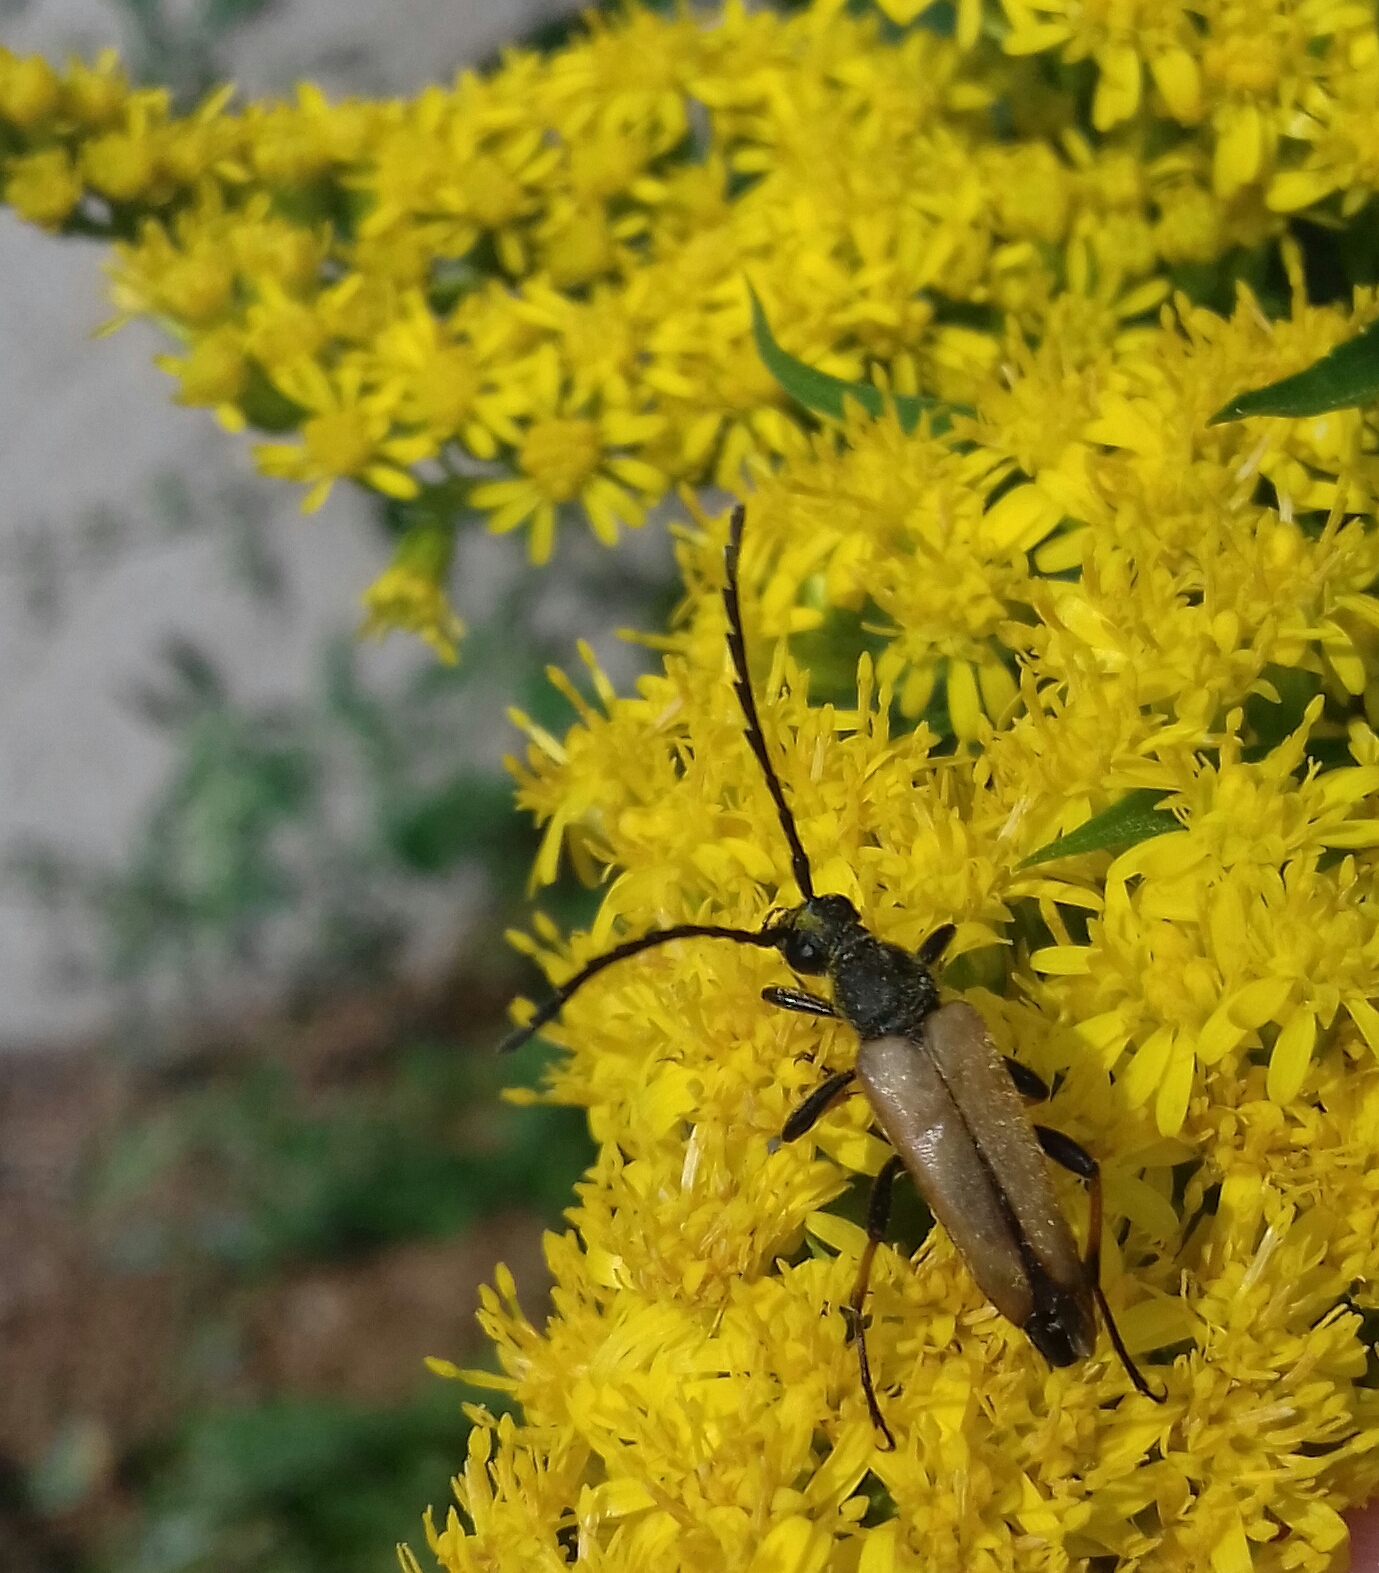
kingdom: Animalia
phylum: Arthropoda
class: Insecta
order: Coleoptera
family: Cerambycidae
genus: Stictoleptura
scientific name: Stictoleptura rubra
